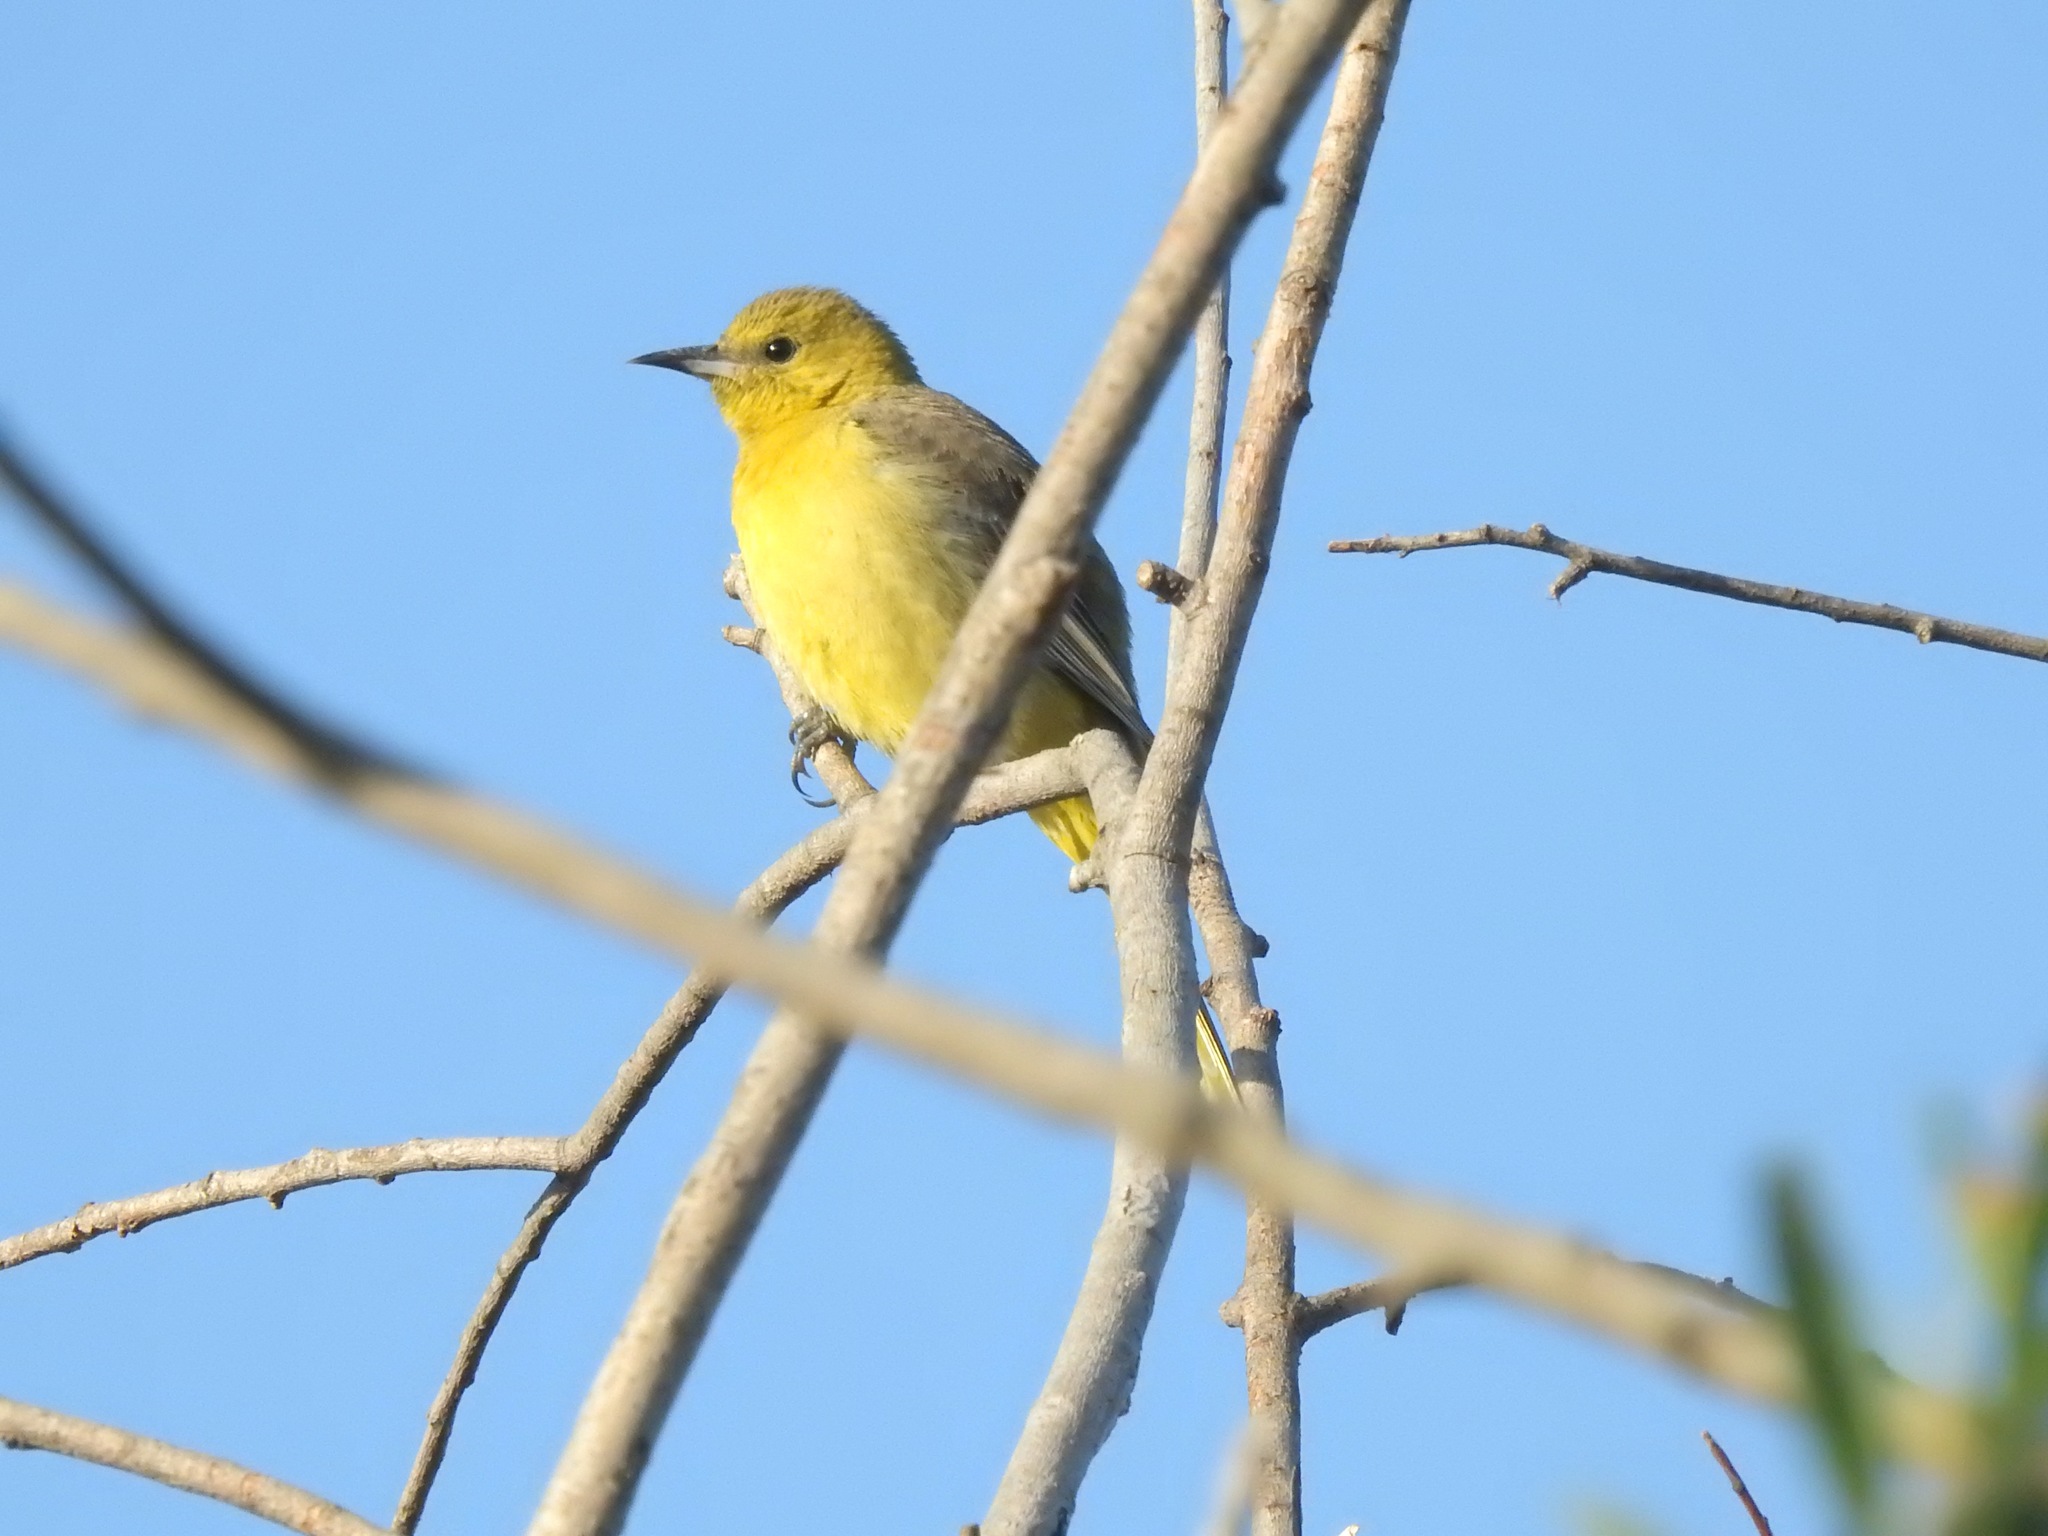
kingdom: Animalia
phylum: Chordata
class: Aves
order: Passeriformes
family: Icteridae
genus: Icterus
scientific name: Icterus cucullatus
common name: Hooded oriole
